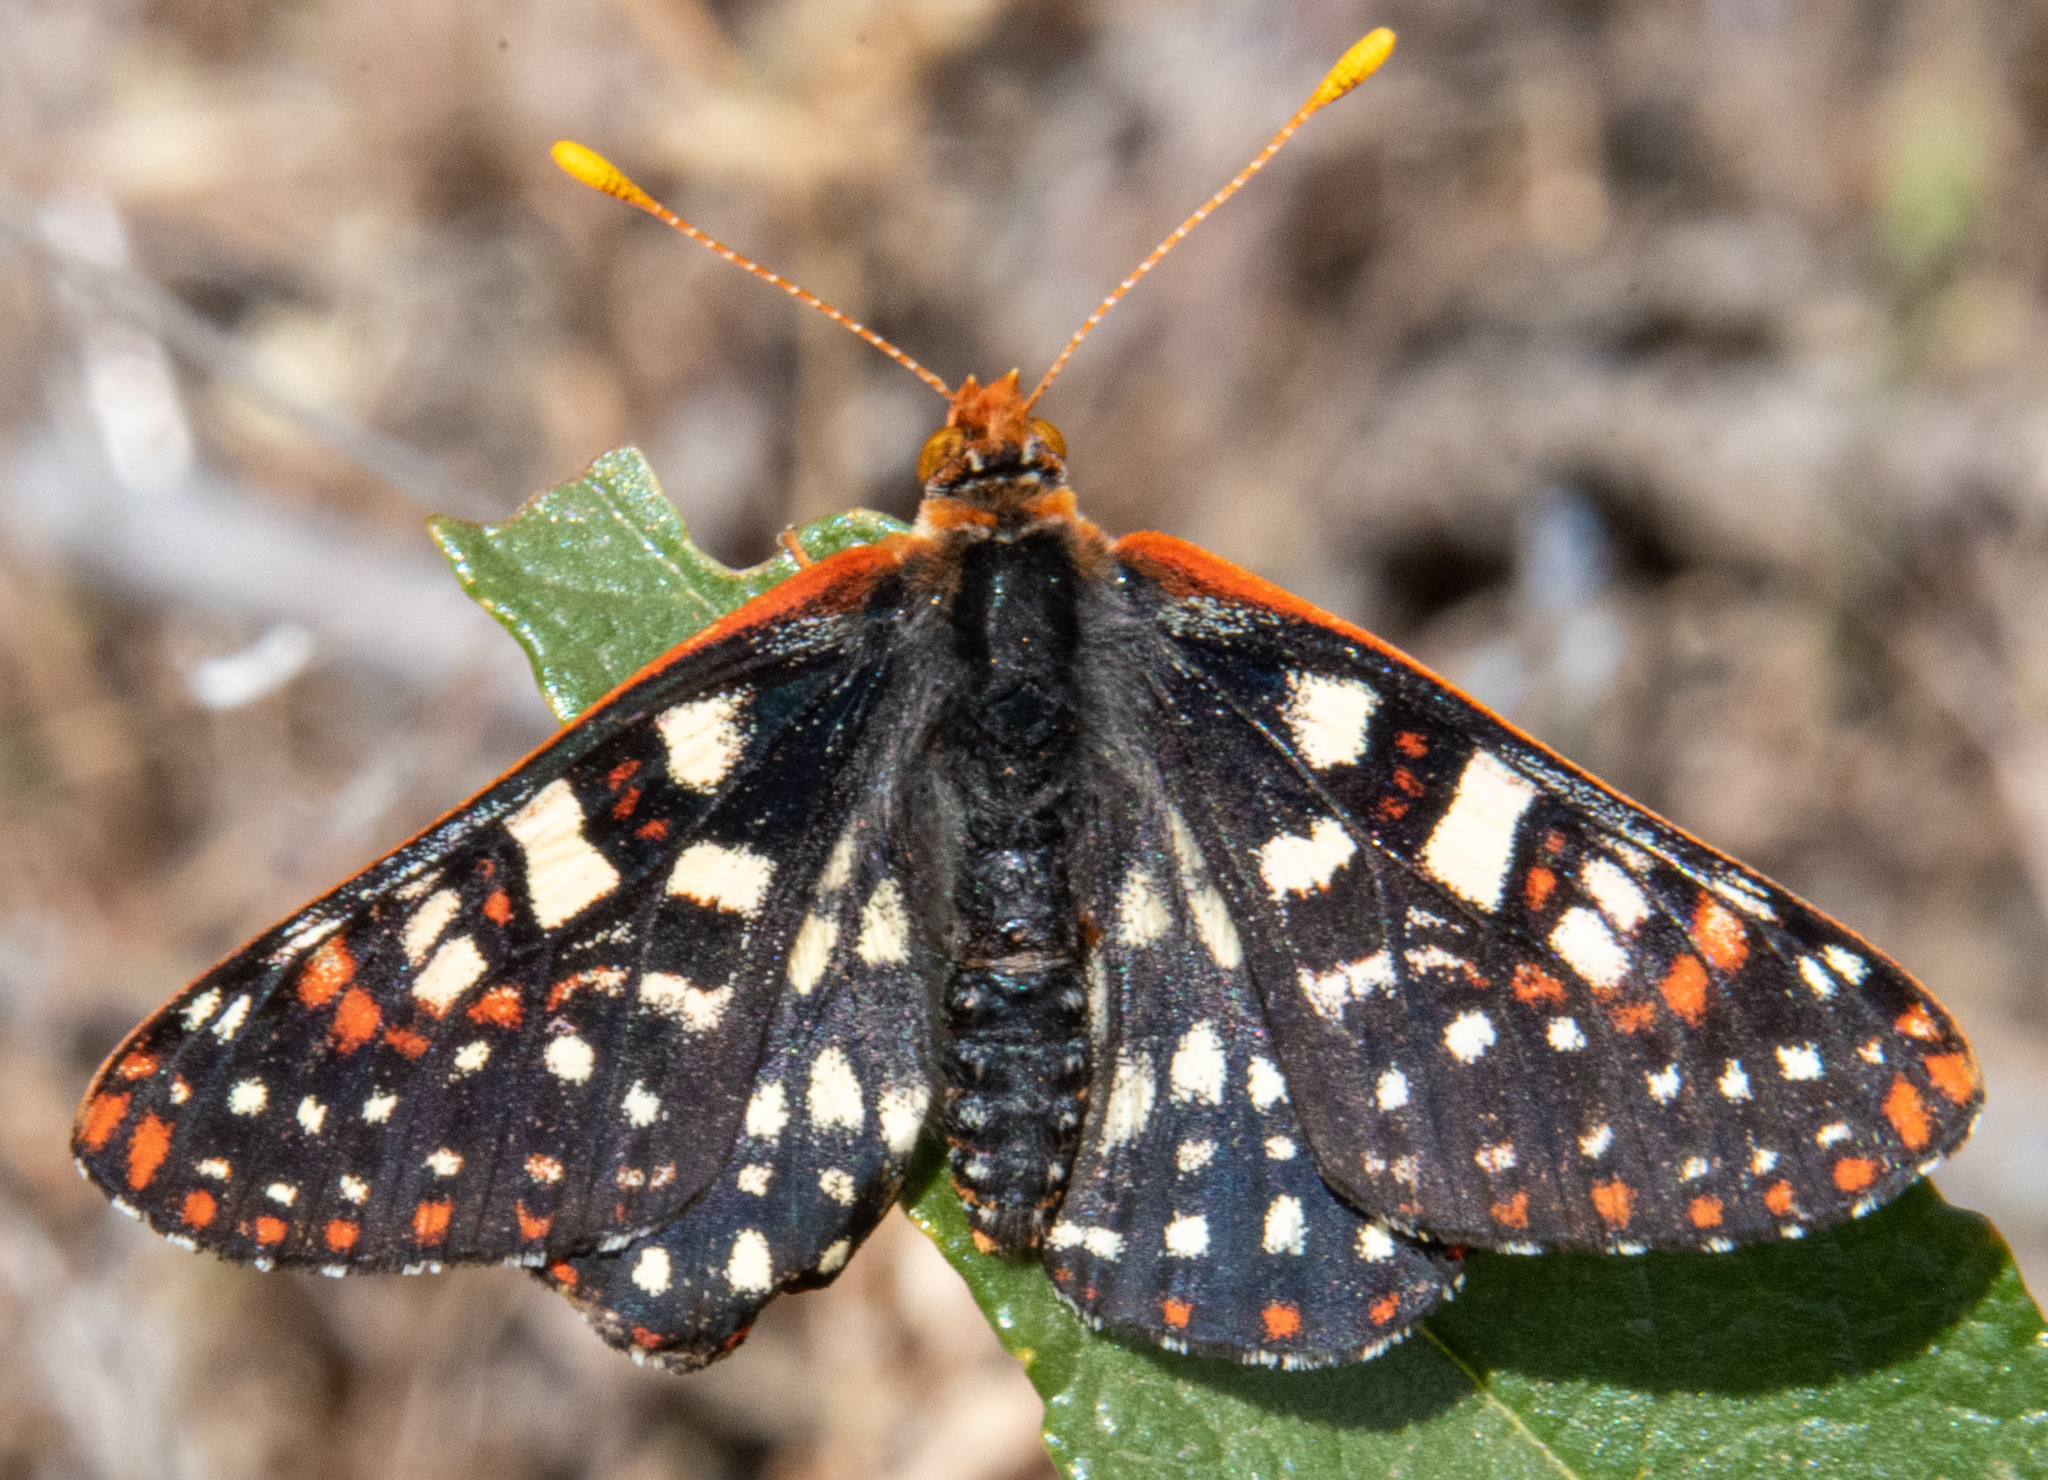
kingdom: Animalia
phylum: Arthropoda
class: Insecta
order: Lepidoptera
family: Nymphalidae
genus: Occidryas
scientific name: Occidryas chalcedona
